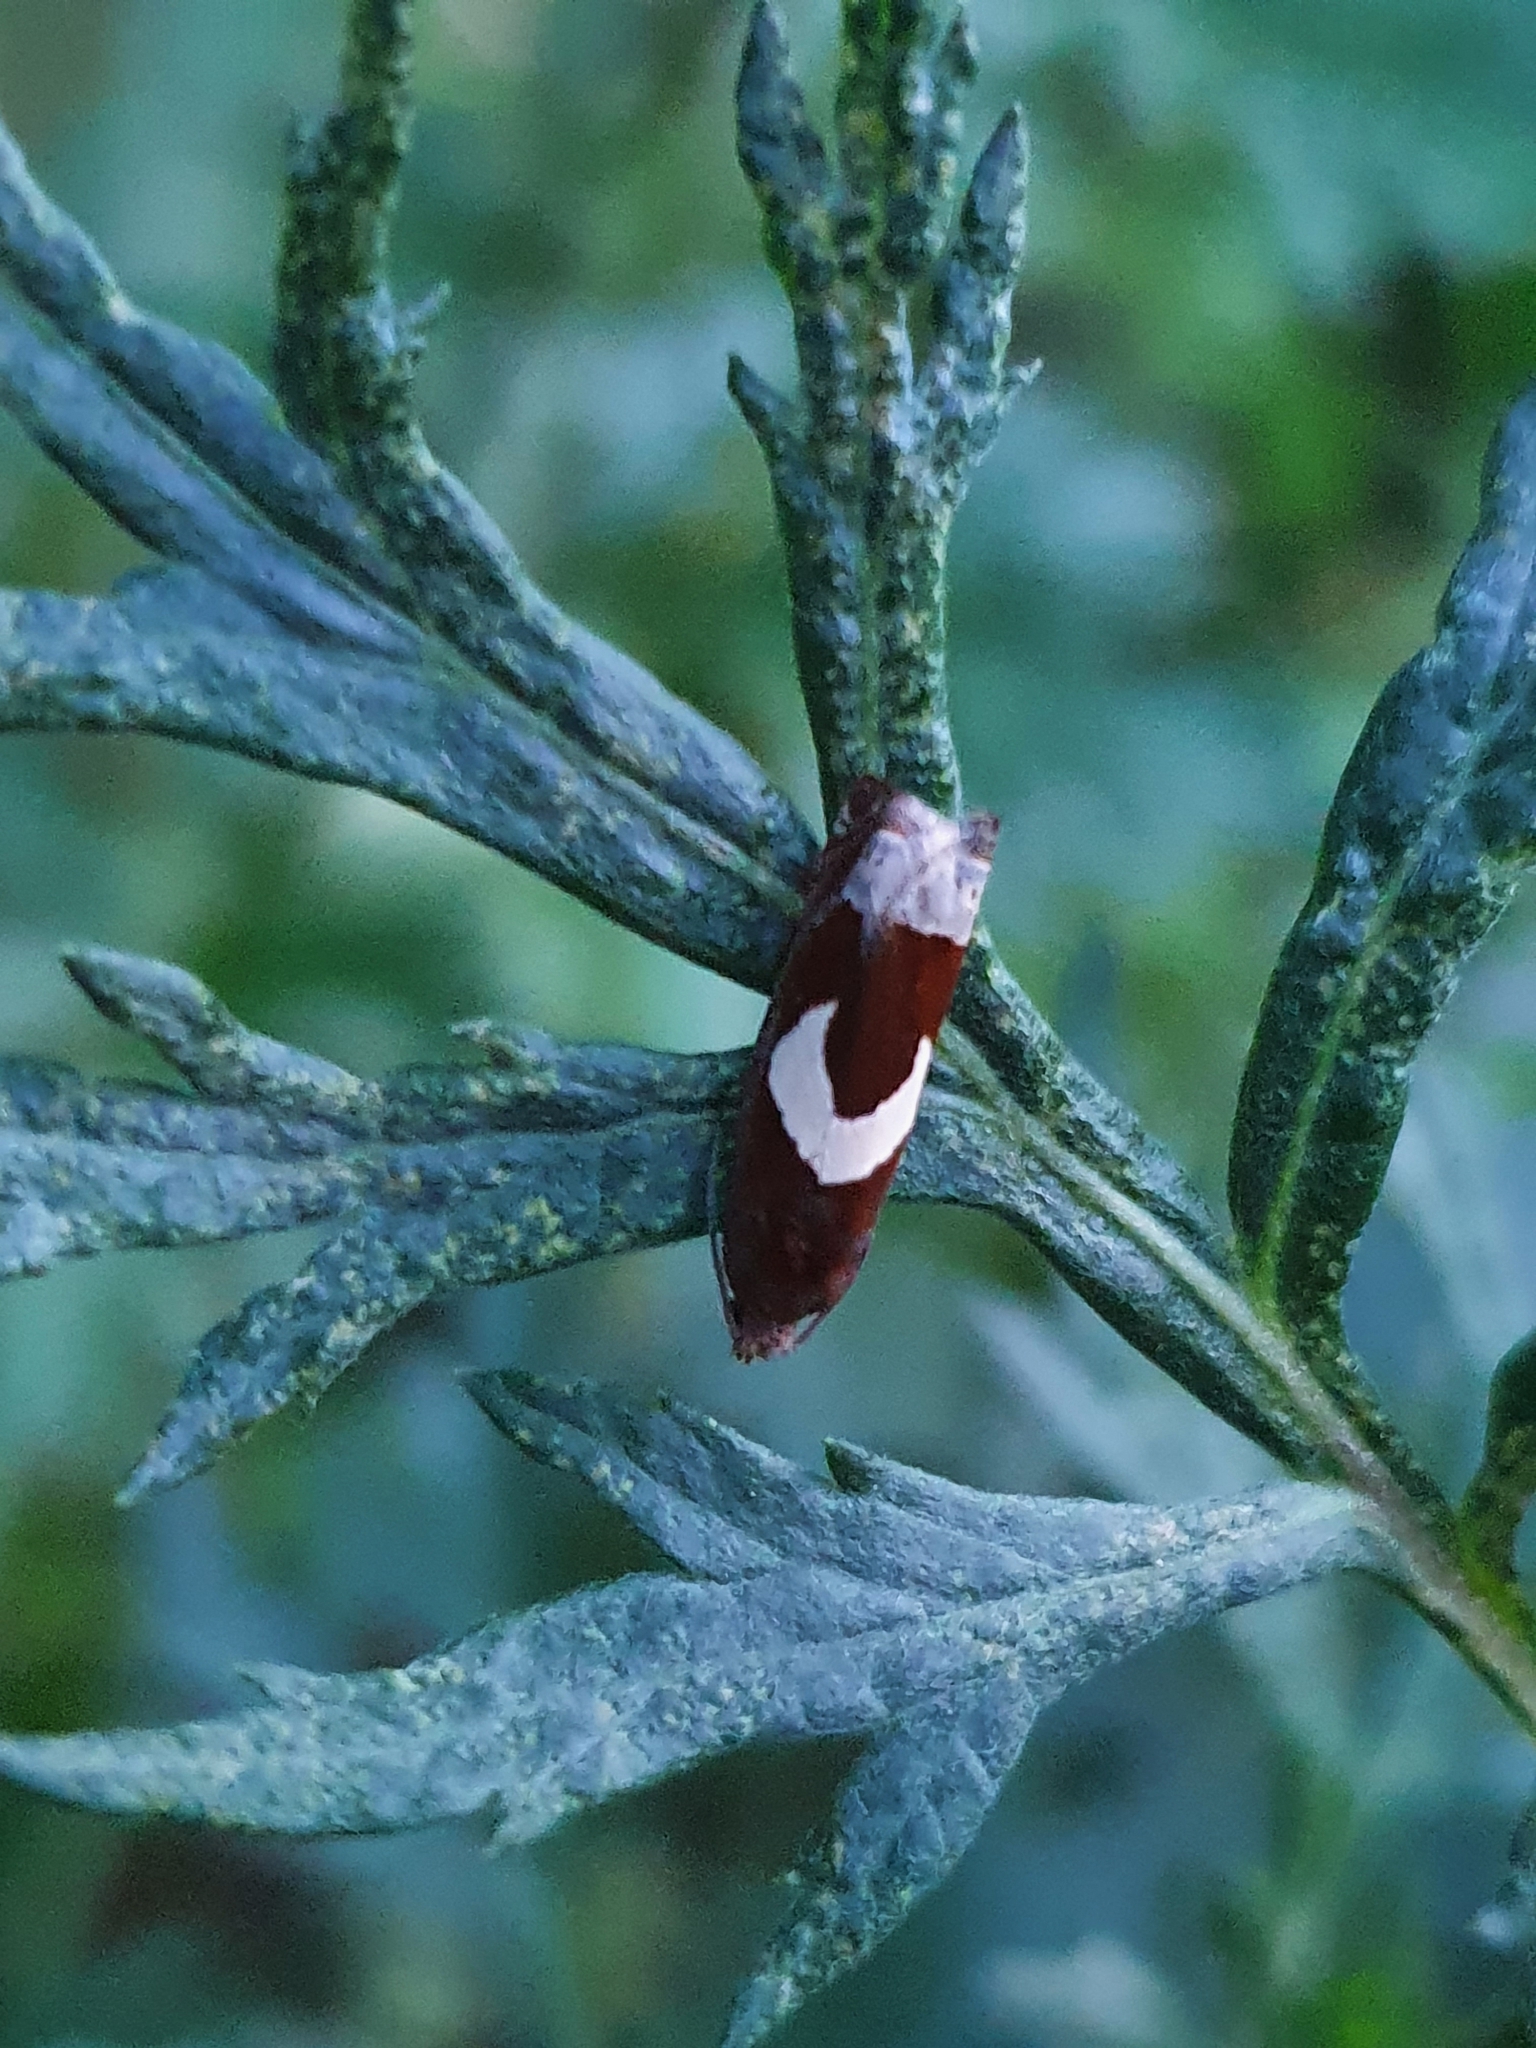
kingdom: Animalia
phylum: Arthropoda
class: Insecta
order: Lepidoptera
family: Tortricidae
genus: Epiblema
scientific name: Epiblema foenella
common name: White-foot bell
